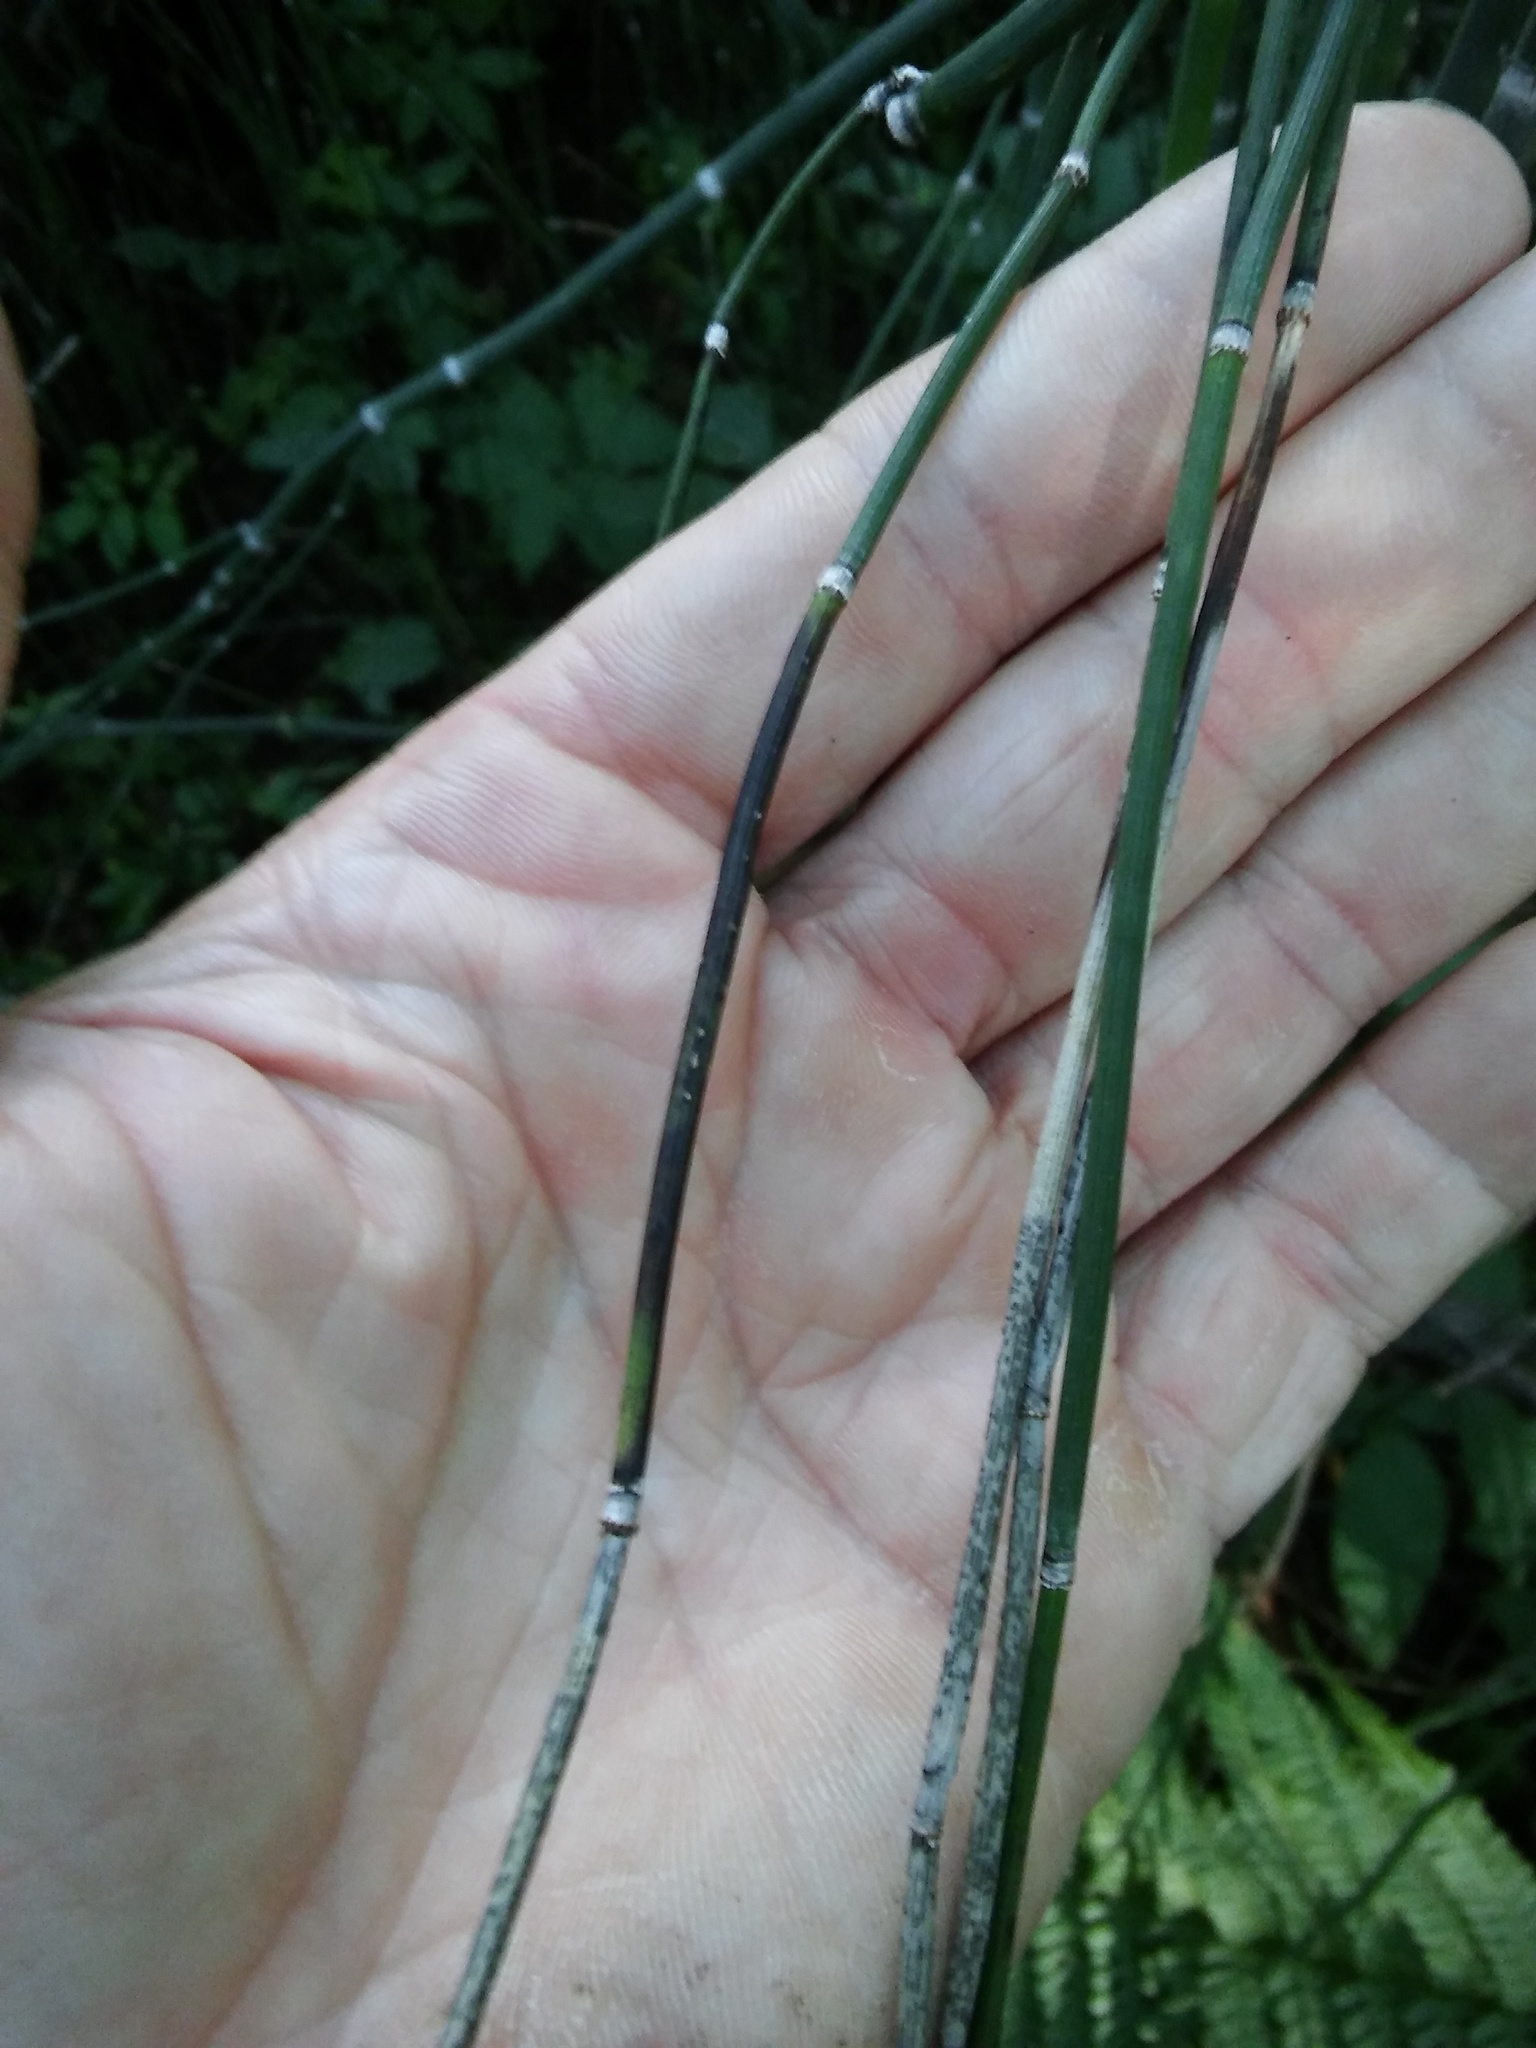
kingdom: Fungi
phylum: Ascomycota
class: Leotiomycetes
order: Helotiales
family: Helotiaceae
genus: Stamnaria
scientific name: Stamnaria americana
